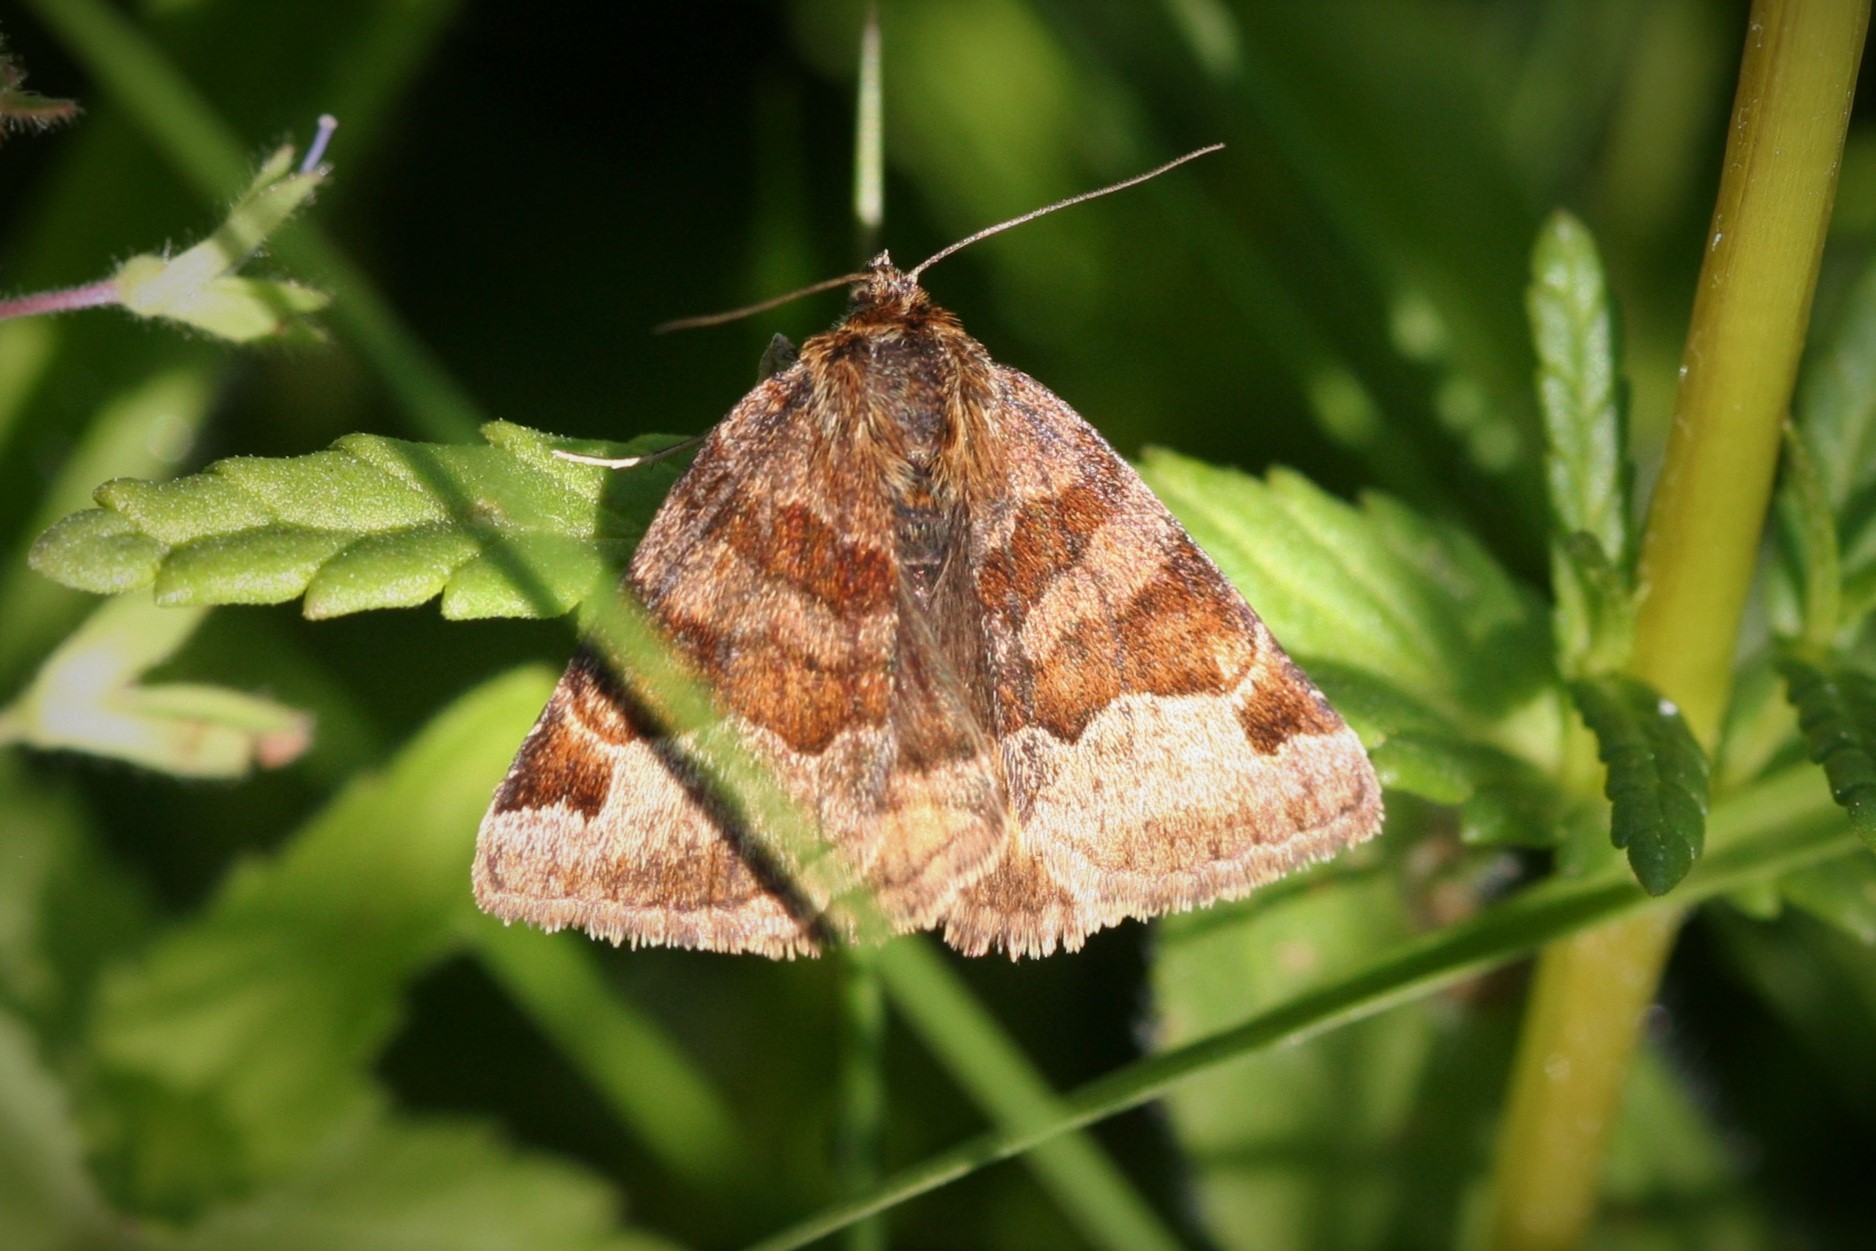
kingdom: Animalia
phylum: Arthropoda
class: Insecta
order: Lepidoptera
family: Erebidae
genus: Euclidia
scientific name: Euclidia glyphica
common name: Burnet companion
